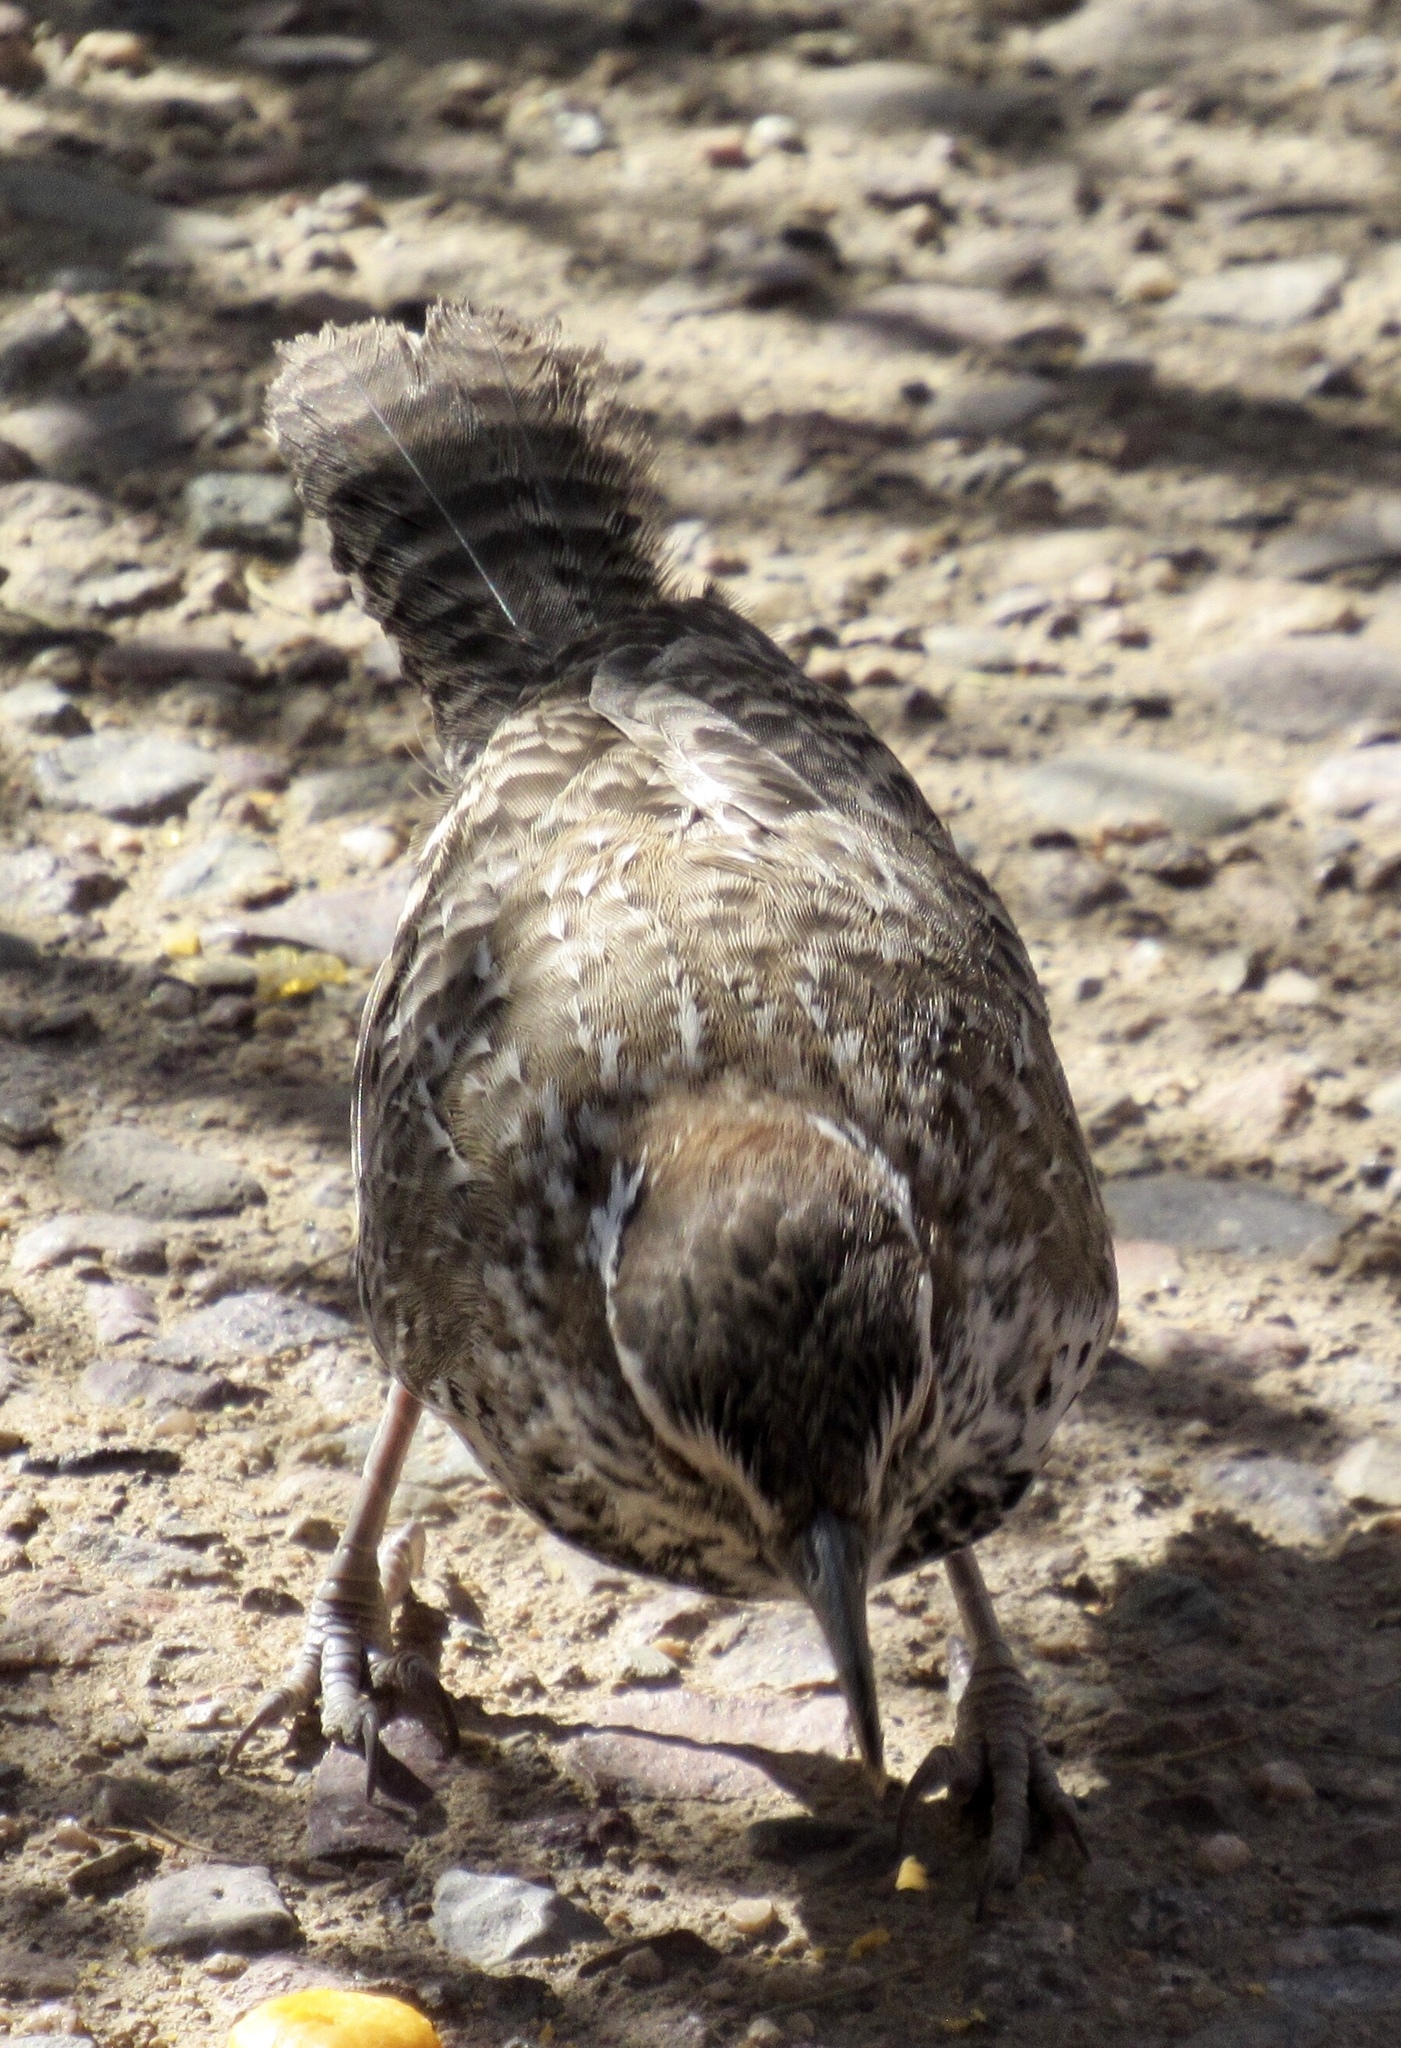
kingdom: Animalia
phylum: Chordata
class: Aves
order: Passeriformes
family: Troglodytidae
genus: Campylorhynchus
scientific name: Campylorhynchus brunneicapillus
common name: Cactus wren
